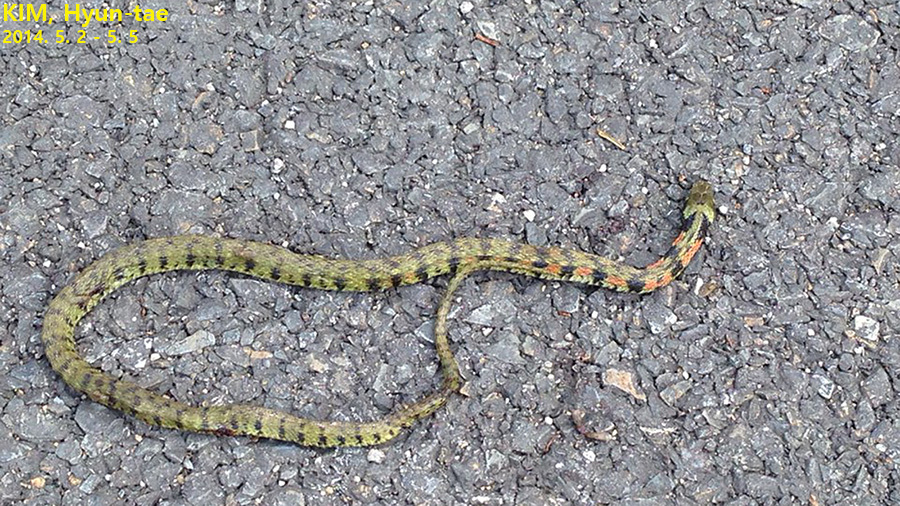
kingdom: Animalia
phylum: Chordata
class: Squamata
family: Colubridae
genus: Rhabdophis
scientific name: Rhabdophis tigrinus
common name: Tiger keelback
